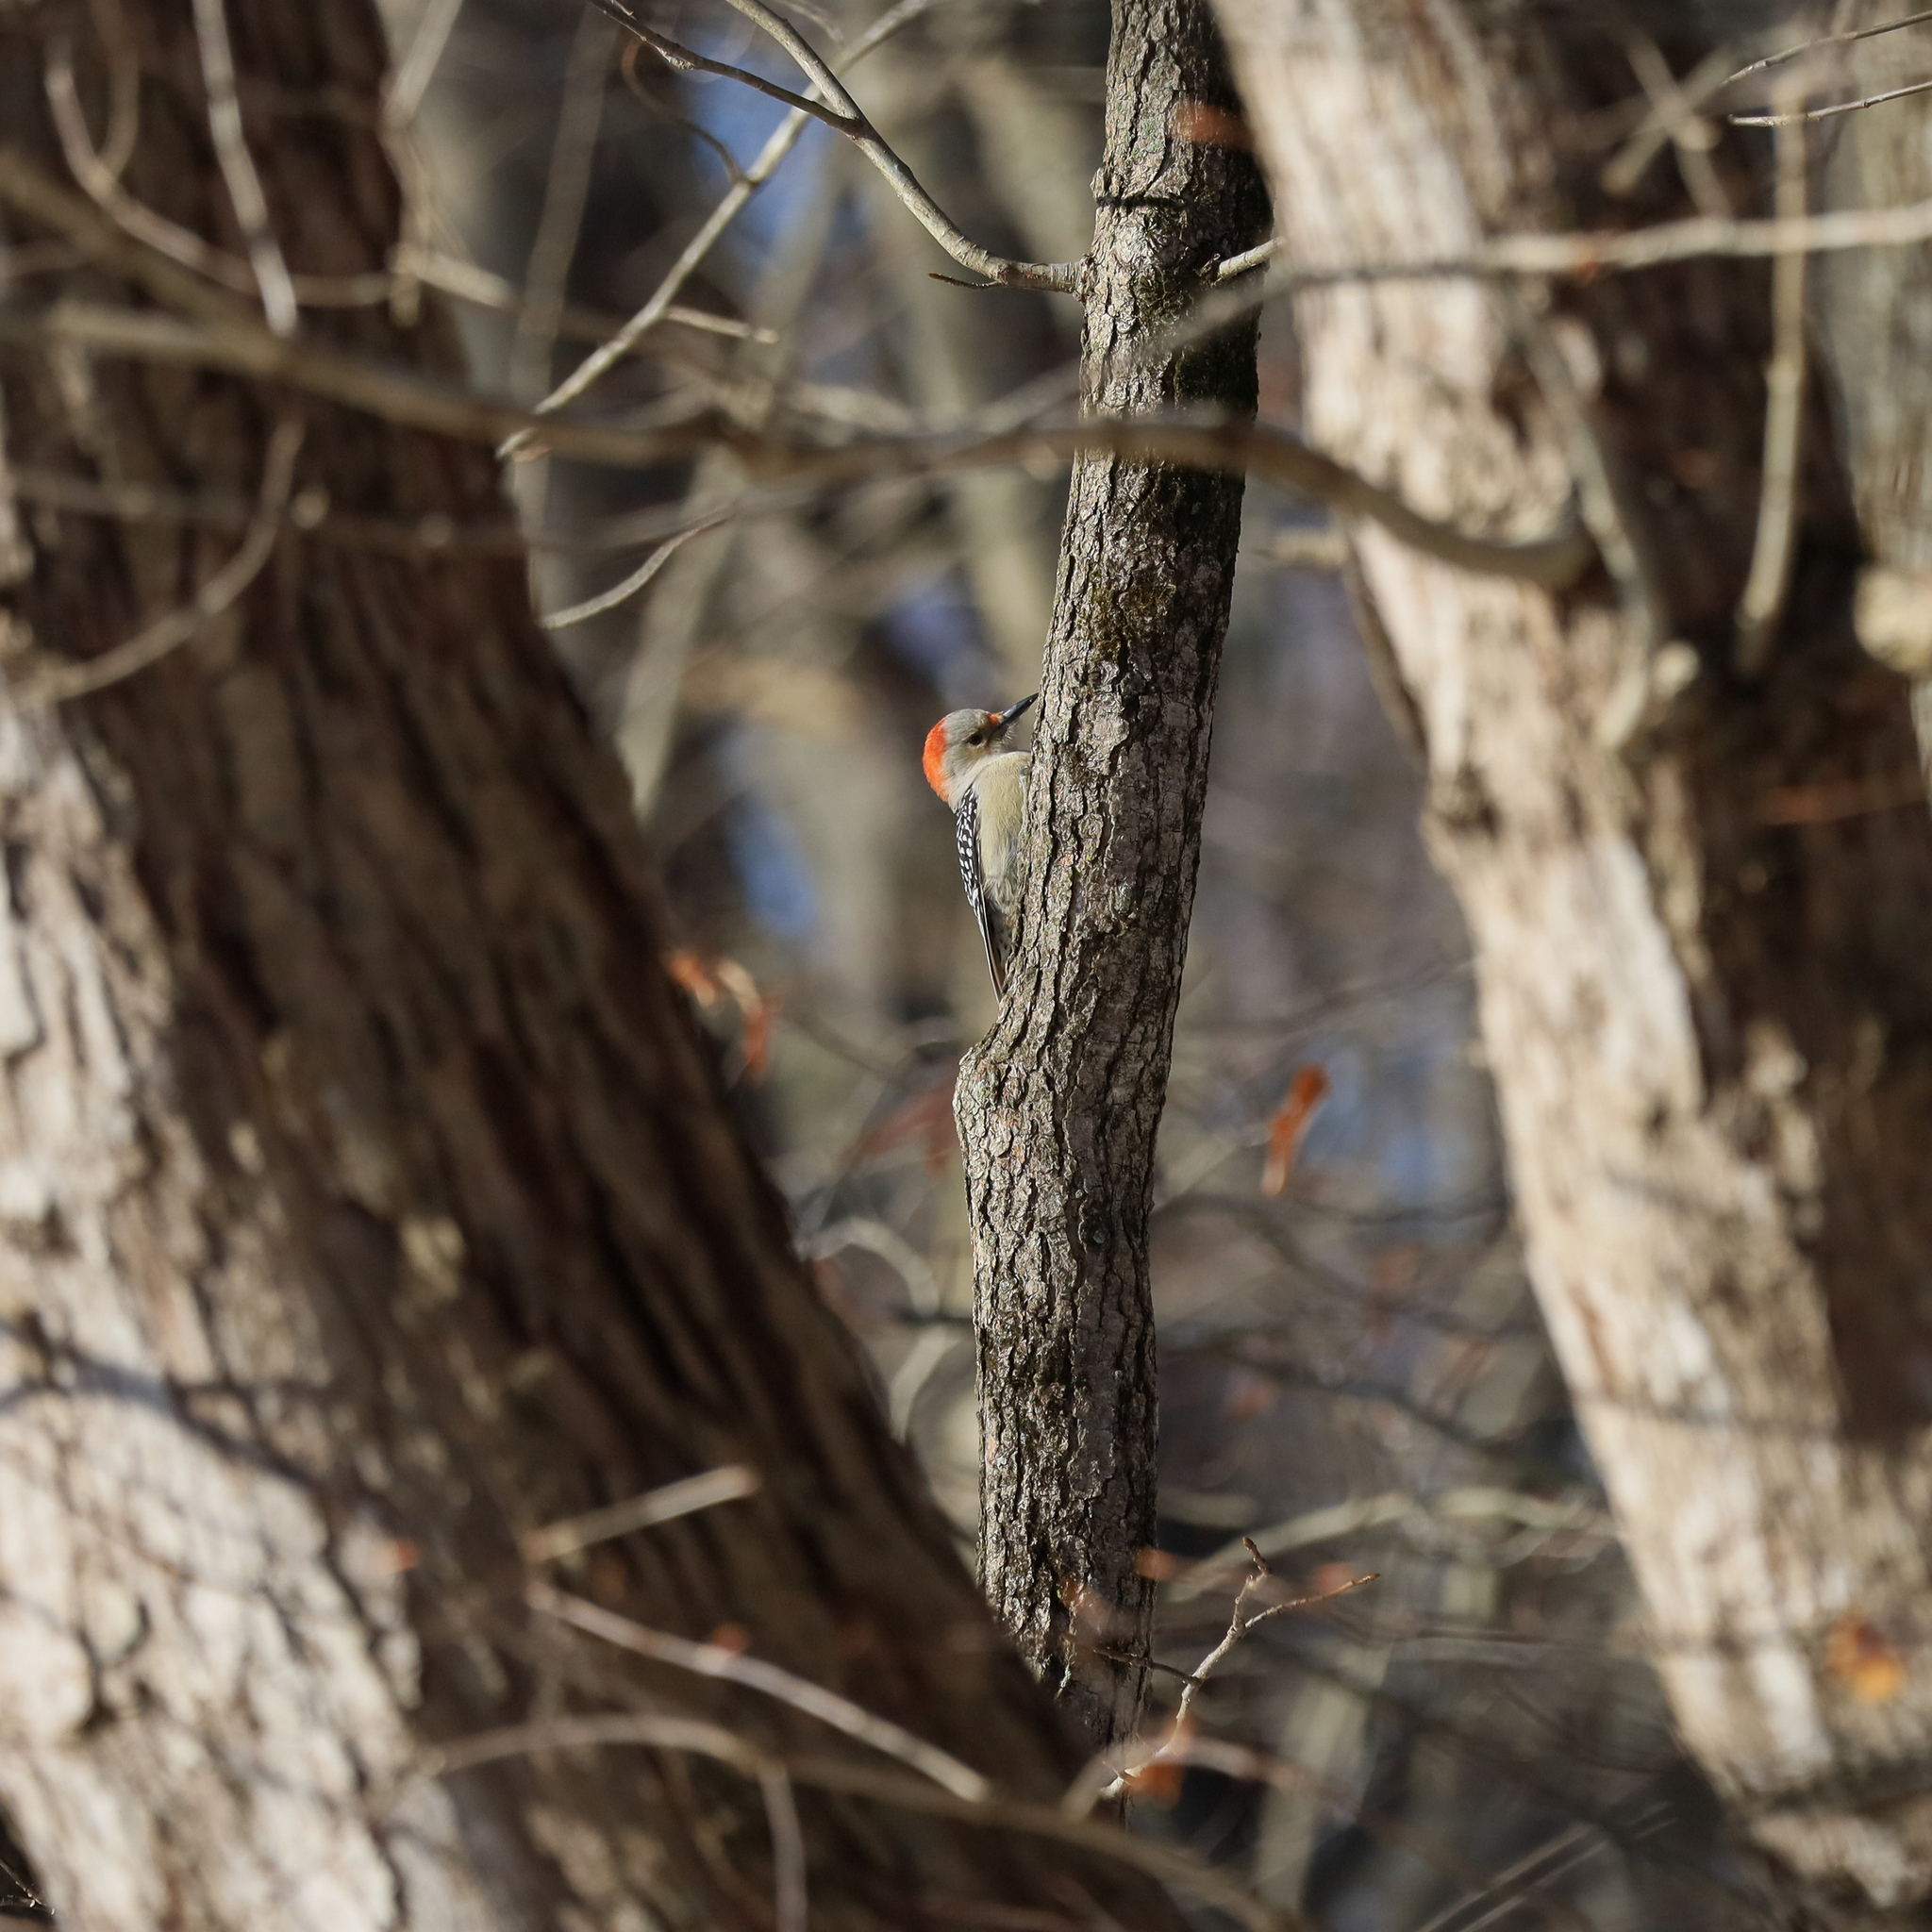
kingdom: Animalia
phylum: Chordata
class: Aves
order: Piciformes
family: Picidae
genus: Melanerpes
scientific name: Melanerpes carolinus
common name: Red-bellied woodpecker
